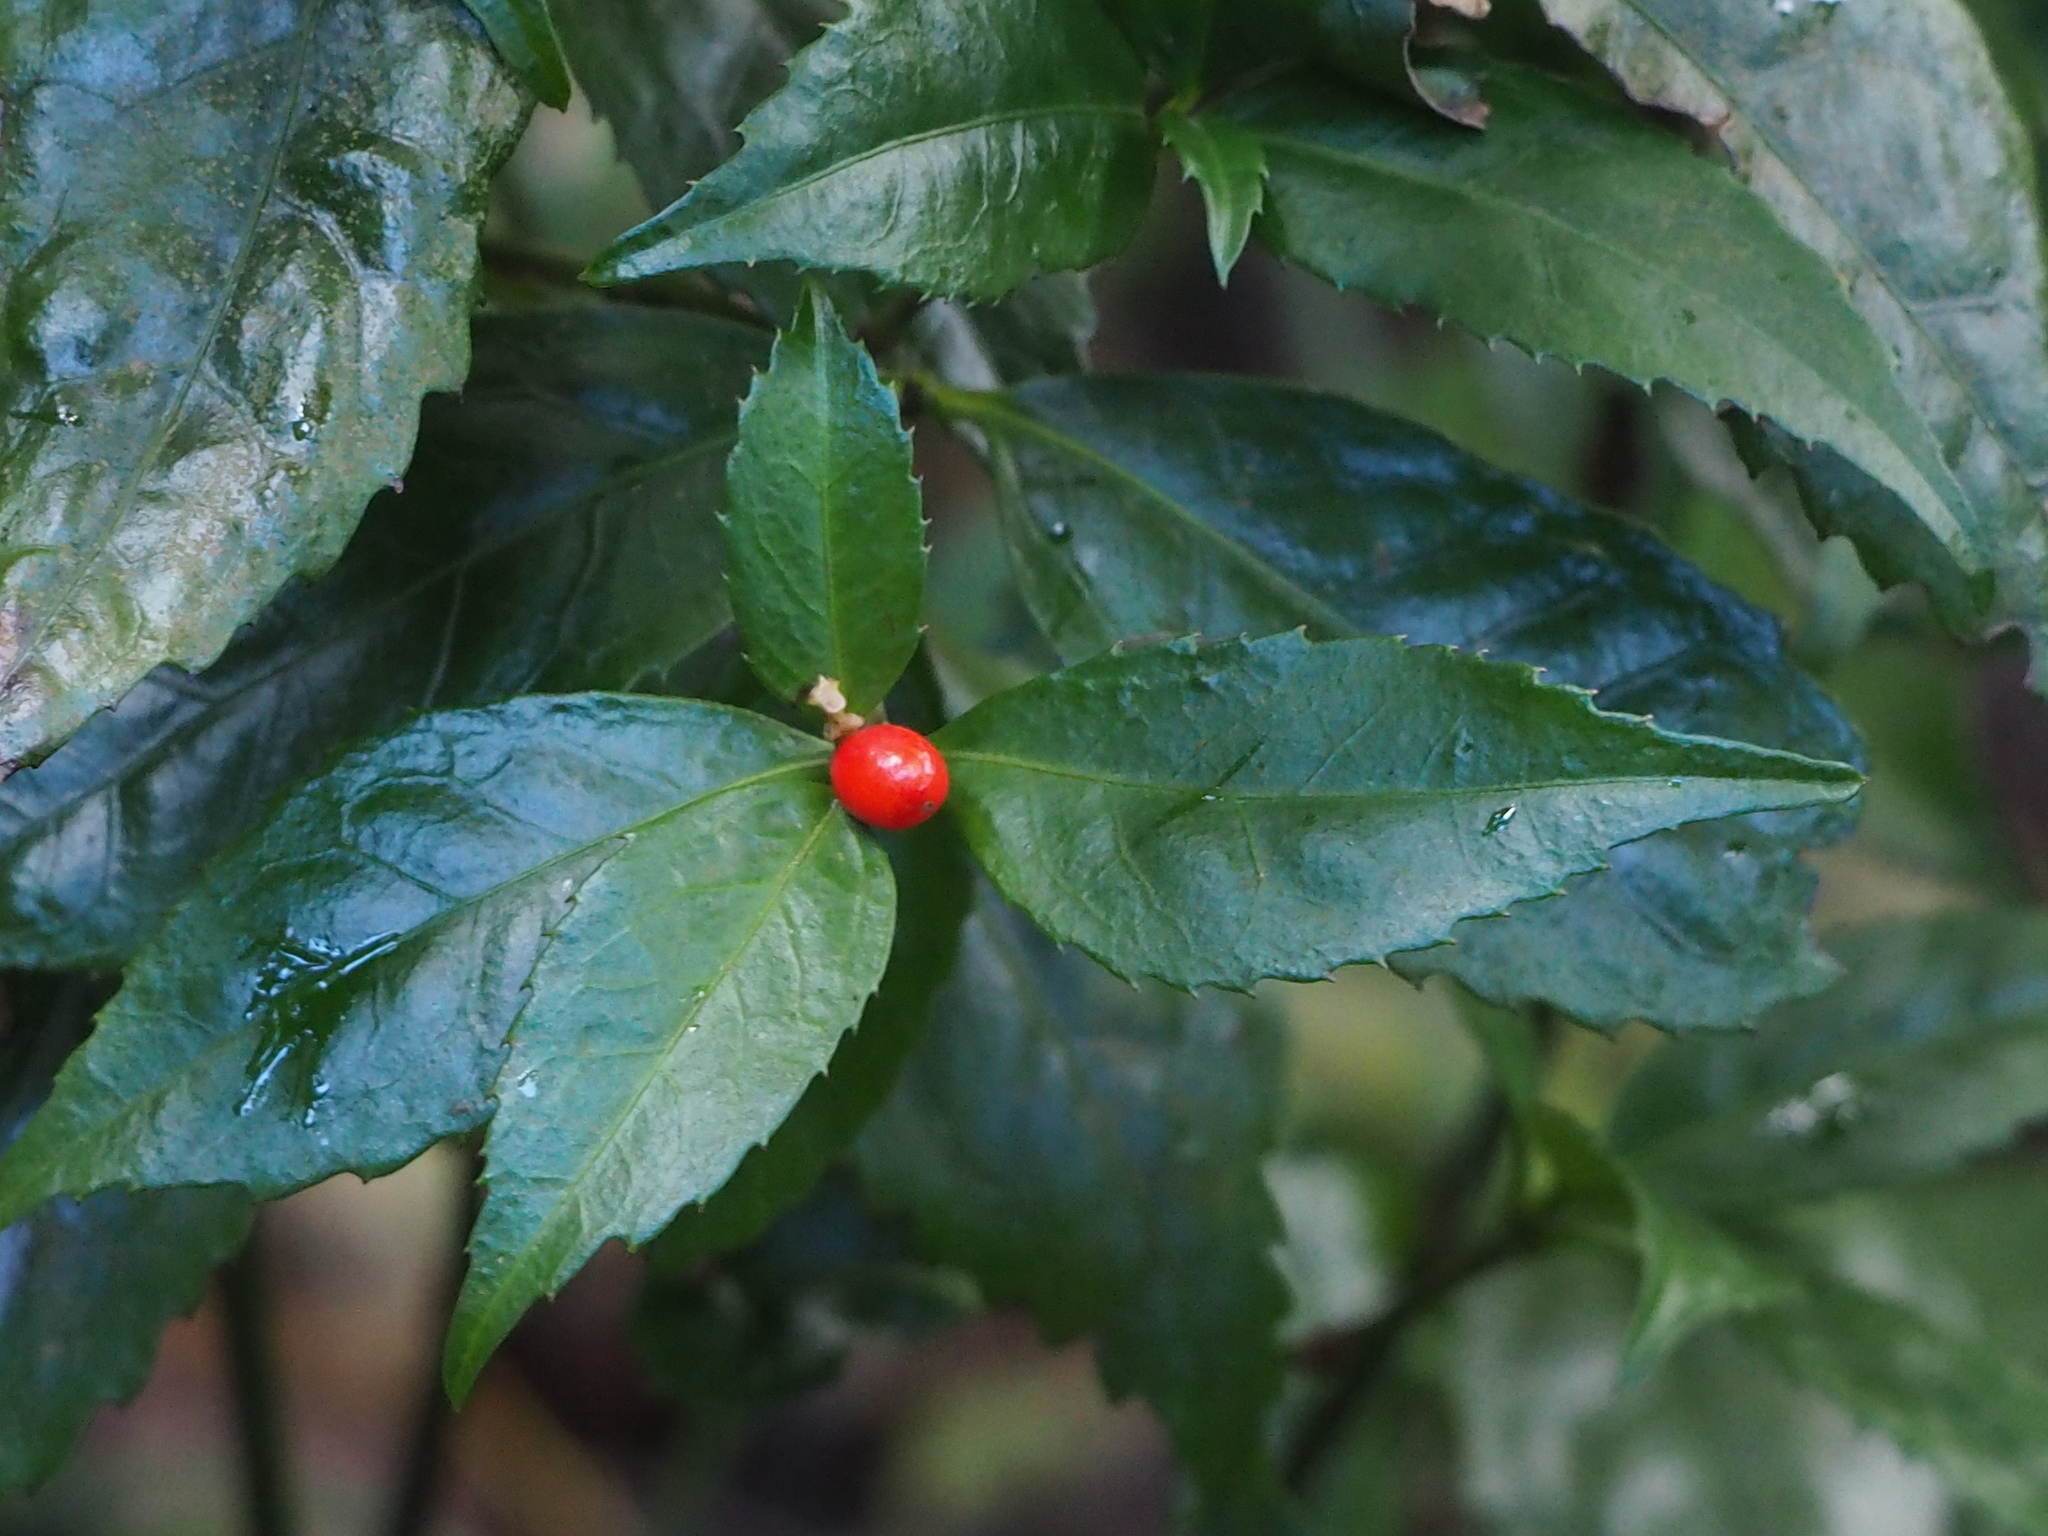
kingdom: Plantae
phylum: Tracheophyta
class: Magnoliopsida
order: Chloranthales
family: Chloranthaceae
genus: Sarcandra
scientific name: Sarcandra glabra
